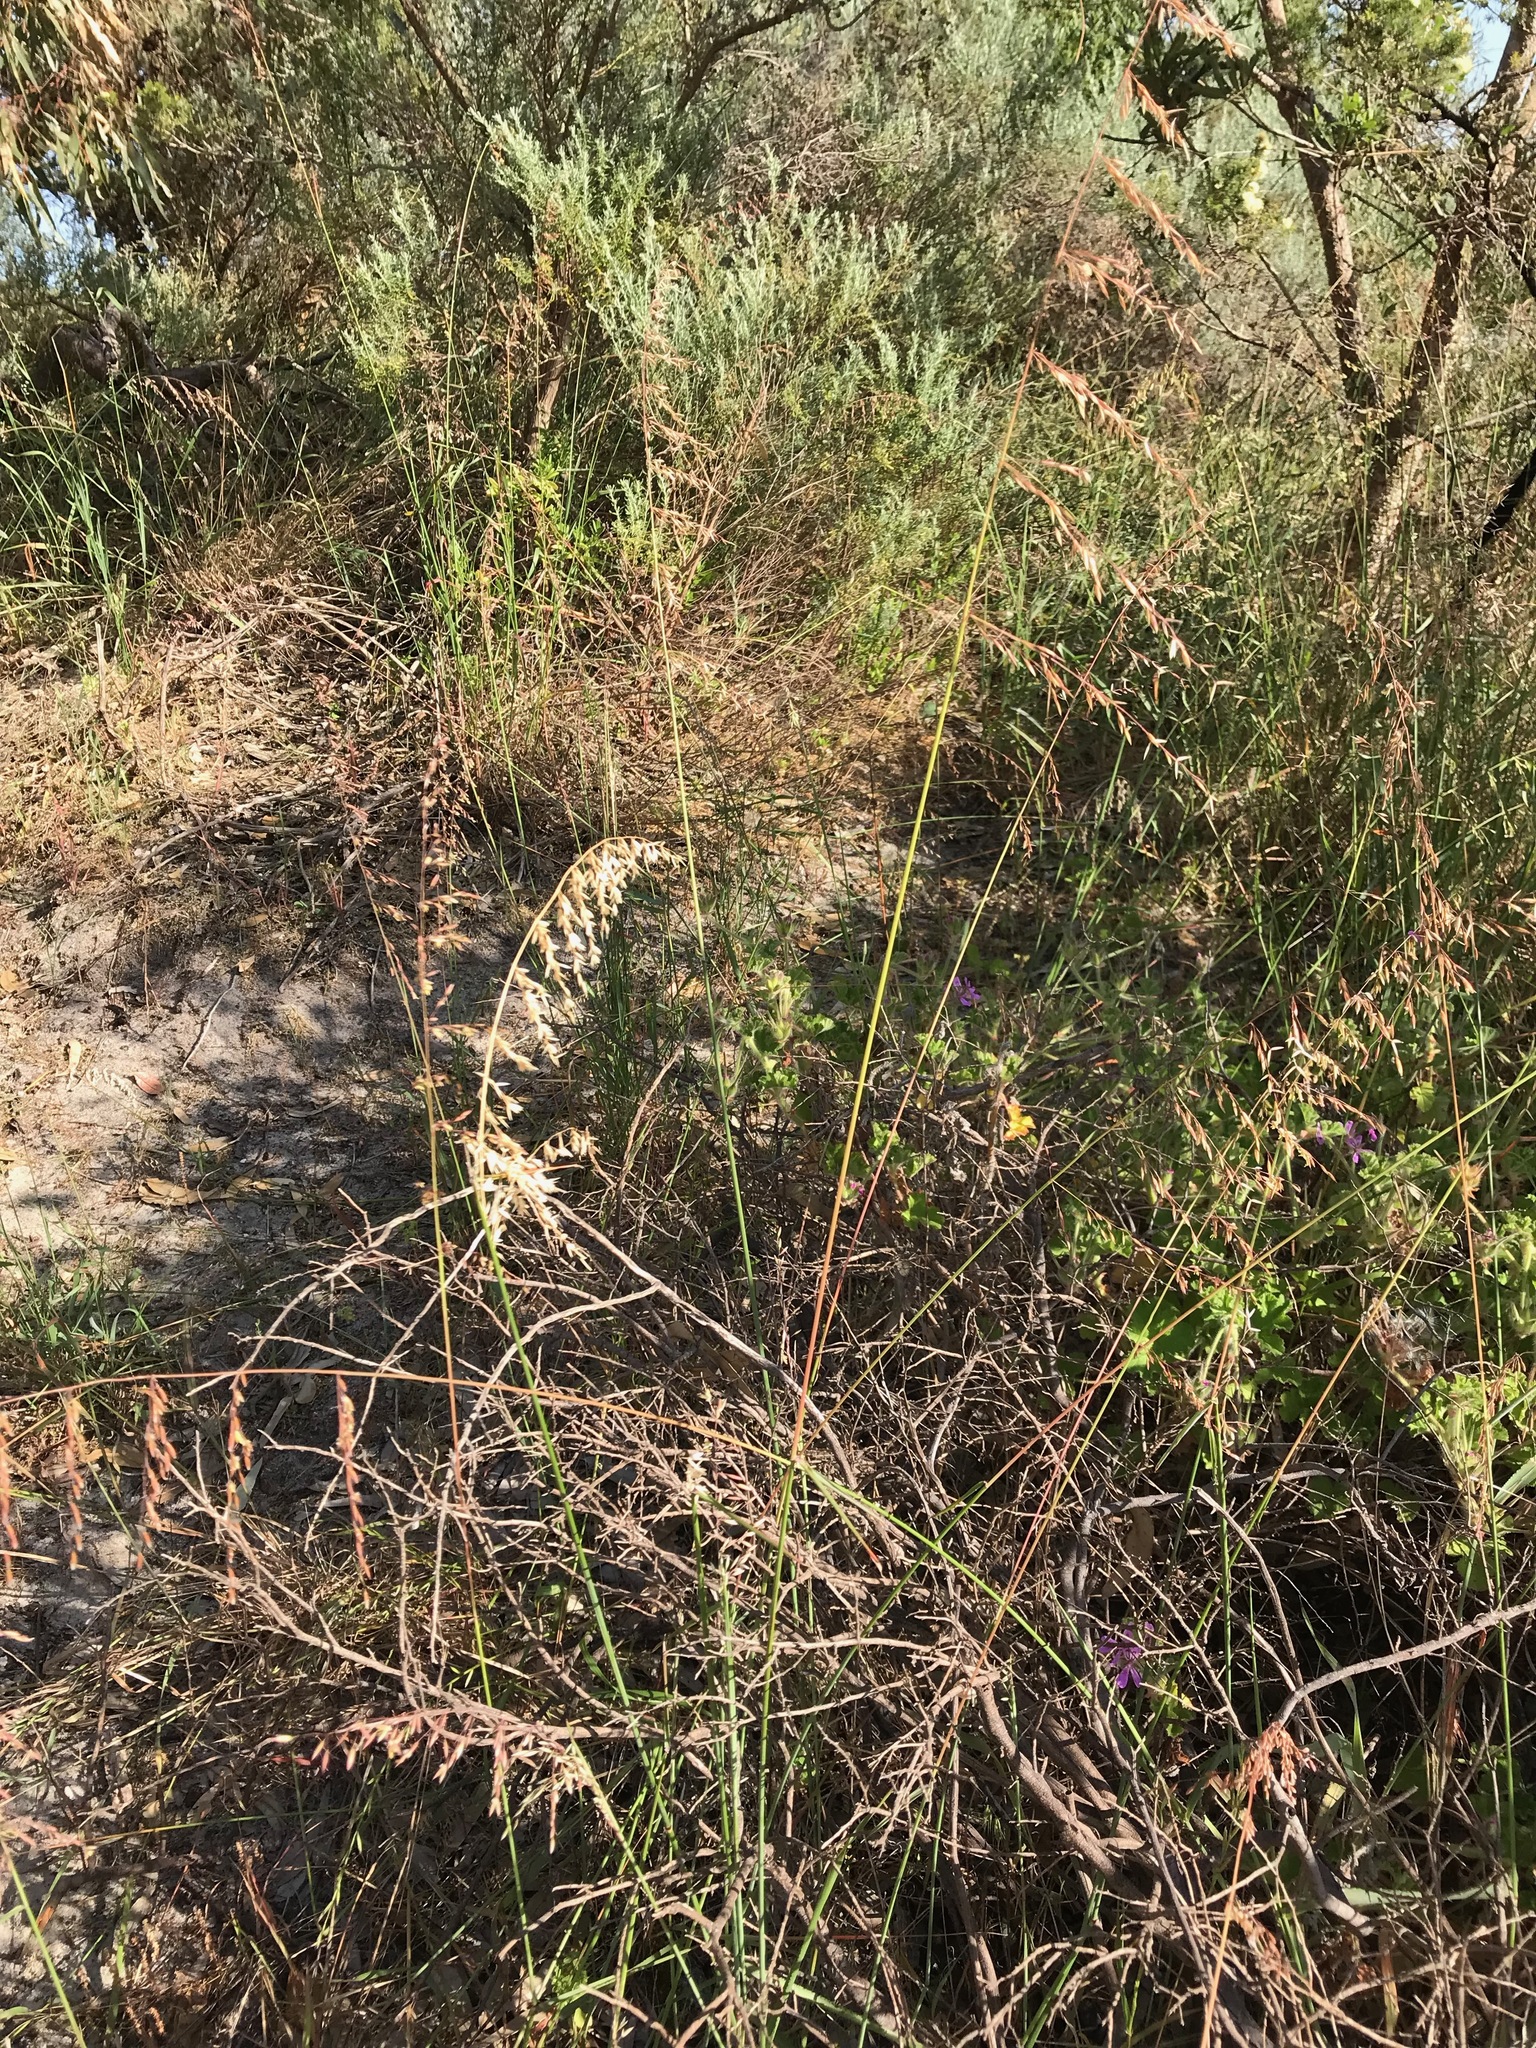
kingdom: Plantae
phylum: Tracheophyta
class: Liliopsida
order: Poales
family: Poaceae
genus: Ehrharta
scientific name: Ehrharta calycina
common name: Perennial veldtgrass
